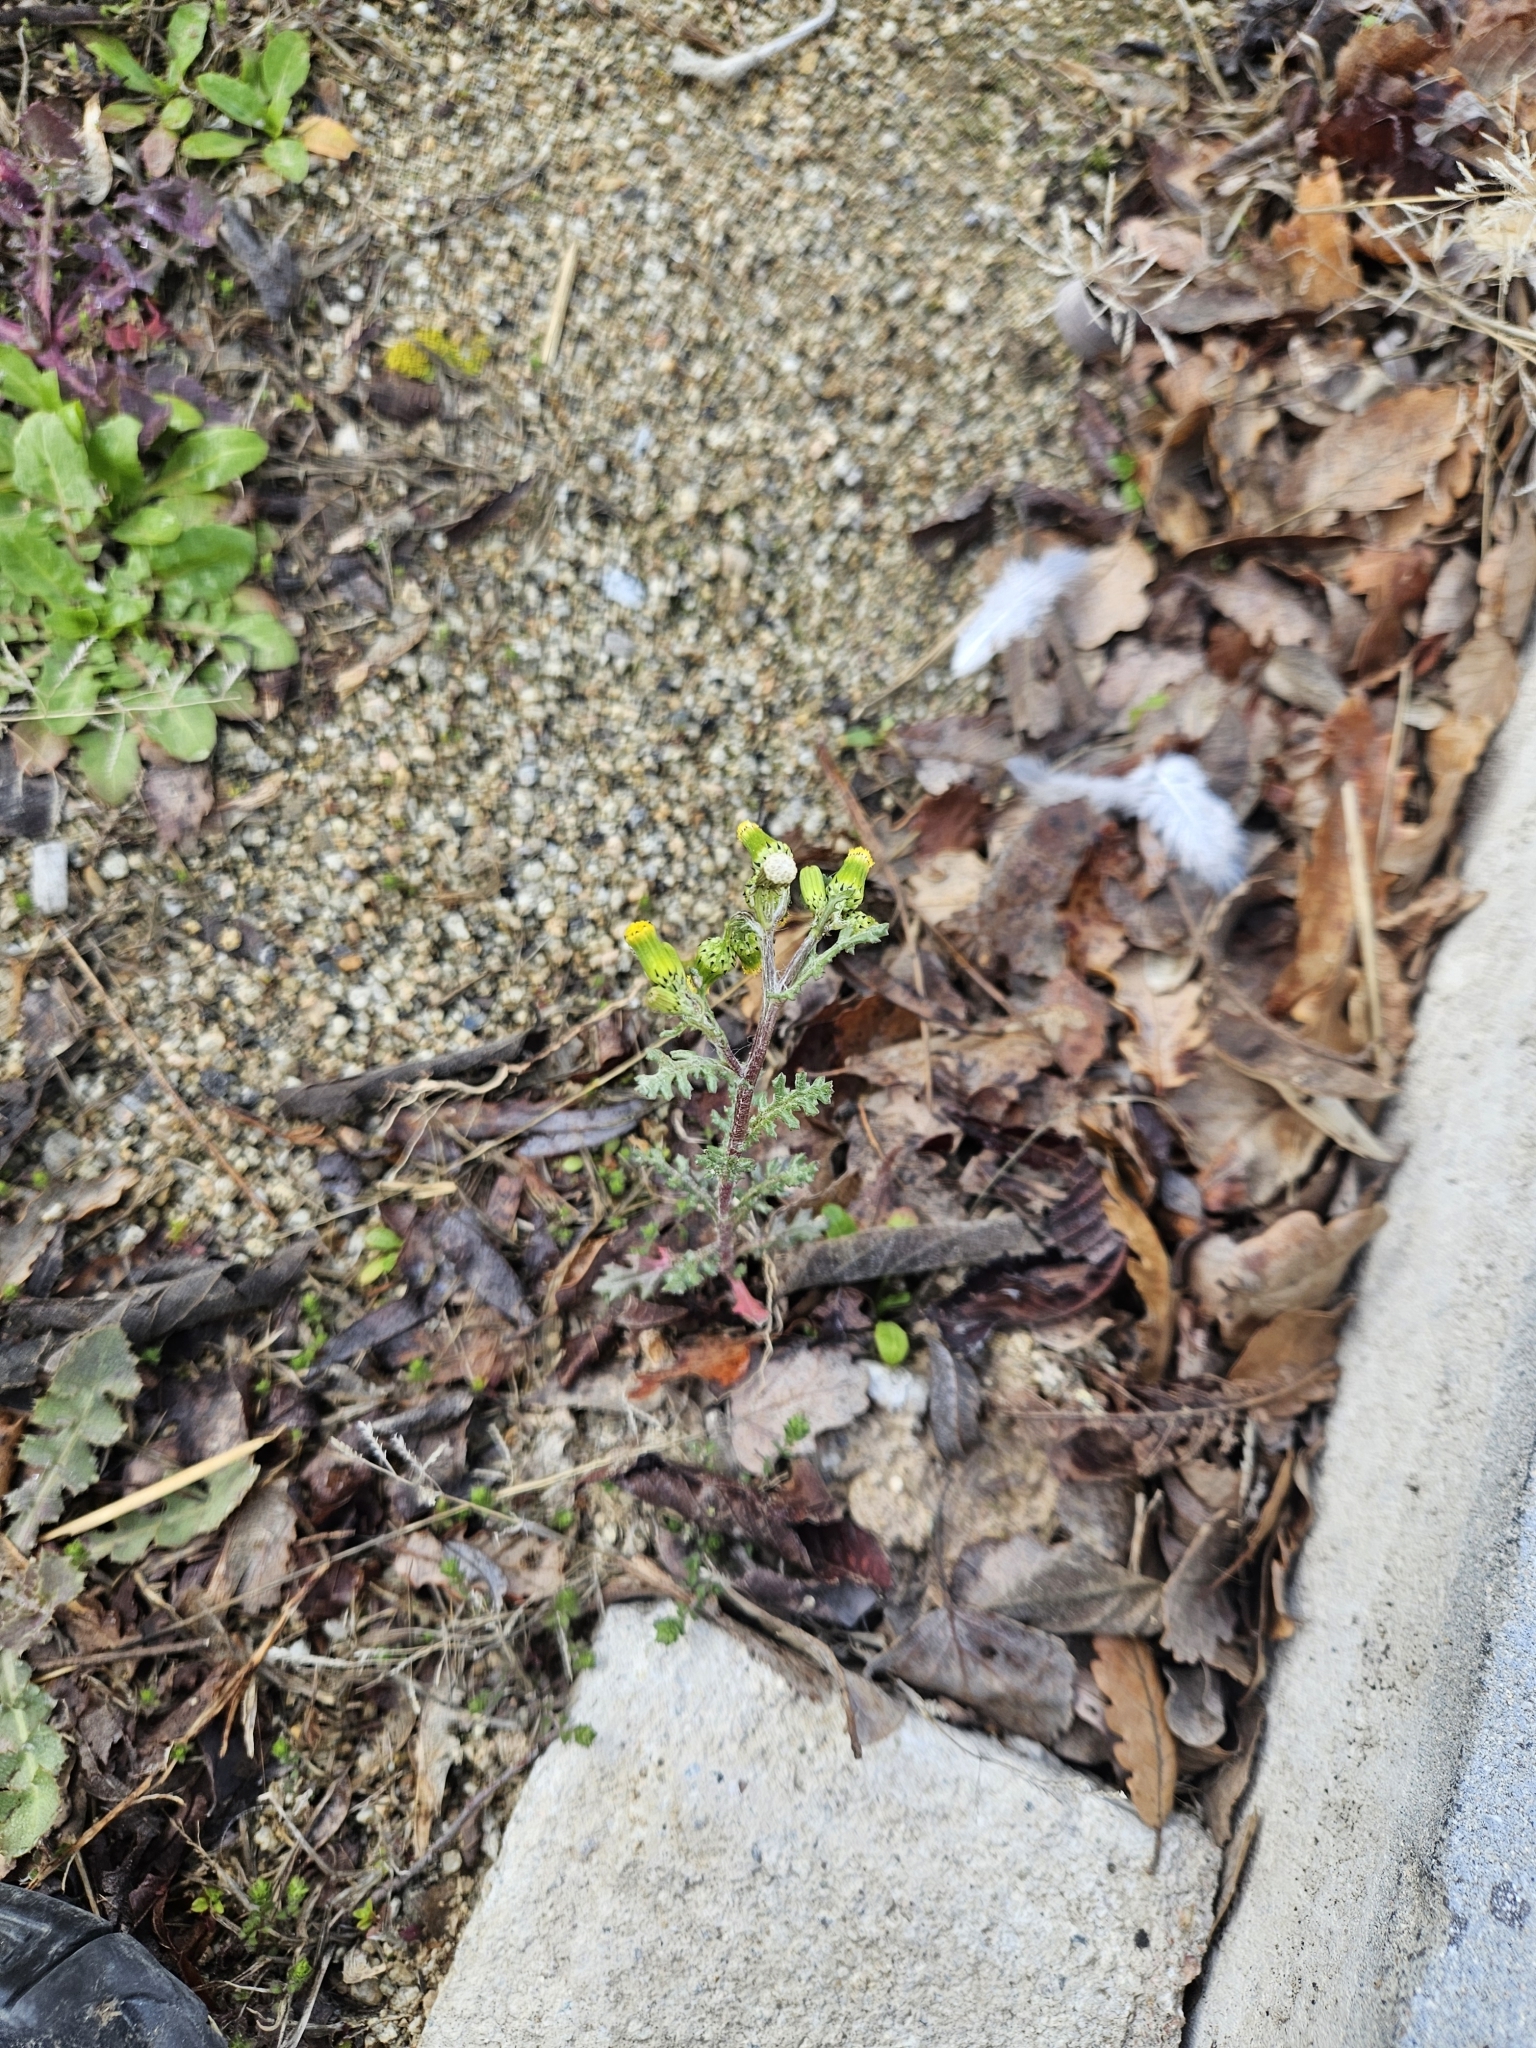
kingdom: Plantae
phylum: Tracheophyta
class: Magnoliopsida
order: Asterales
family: Asteraceae
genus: Senecio
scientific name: Senecio vulgaris
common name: Old-man-in-the-spring
